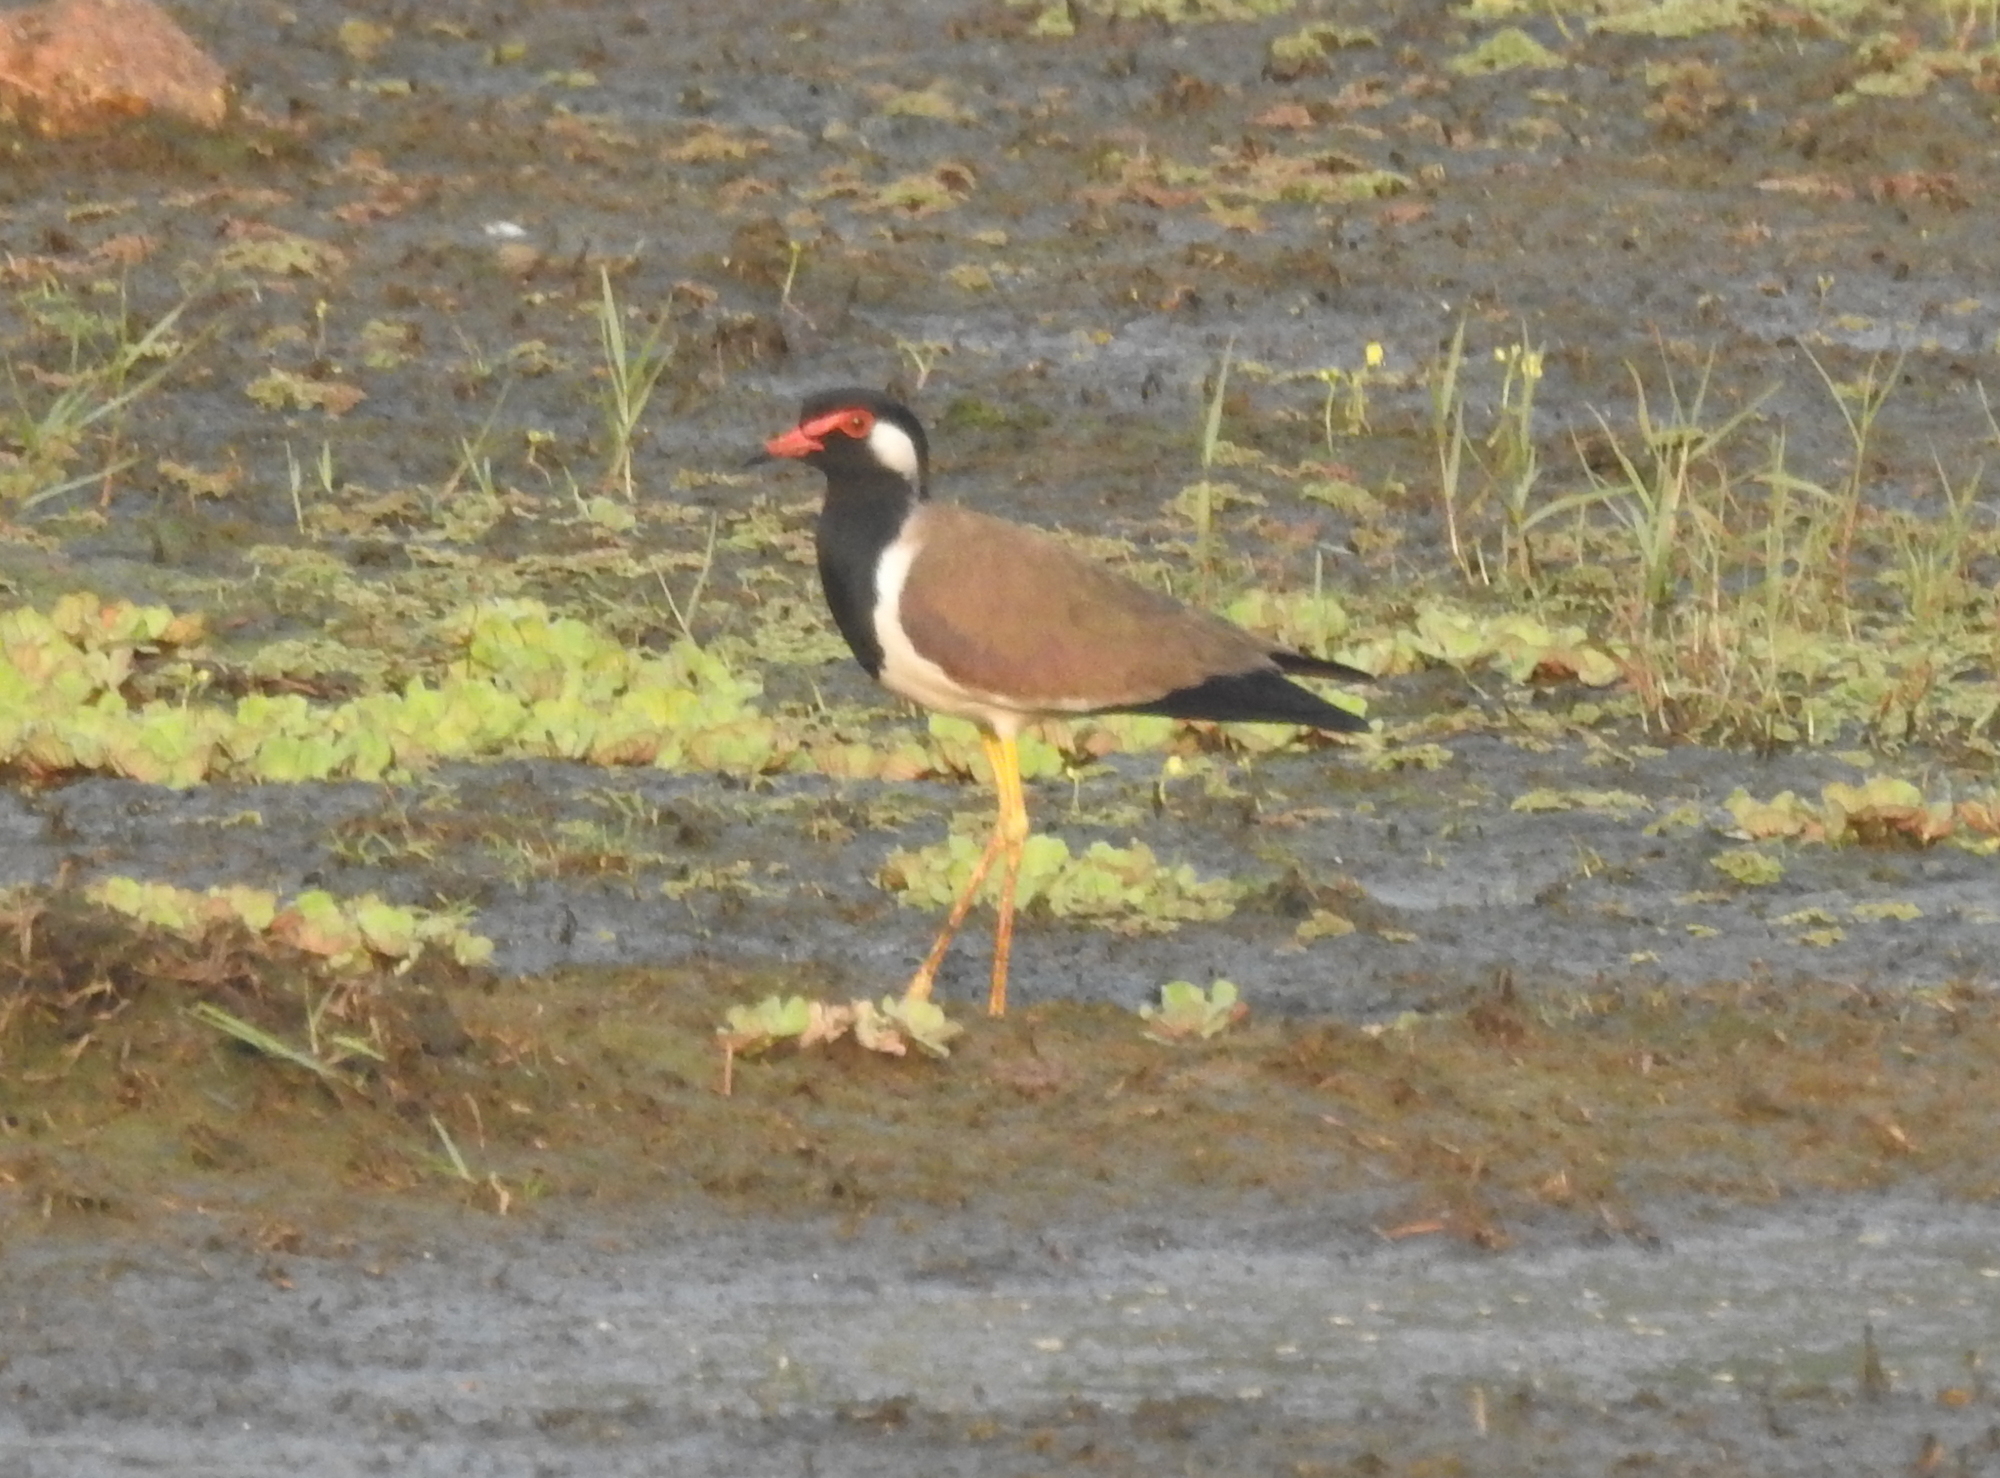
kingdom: Animalia
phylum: Chordata
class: Aves
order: Charadriiformes
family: Charadriidae
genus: Vanellus
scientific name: Vanellus indicus
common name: Red-wattled lapwing
